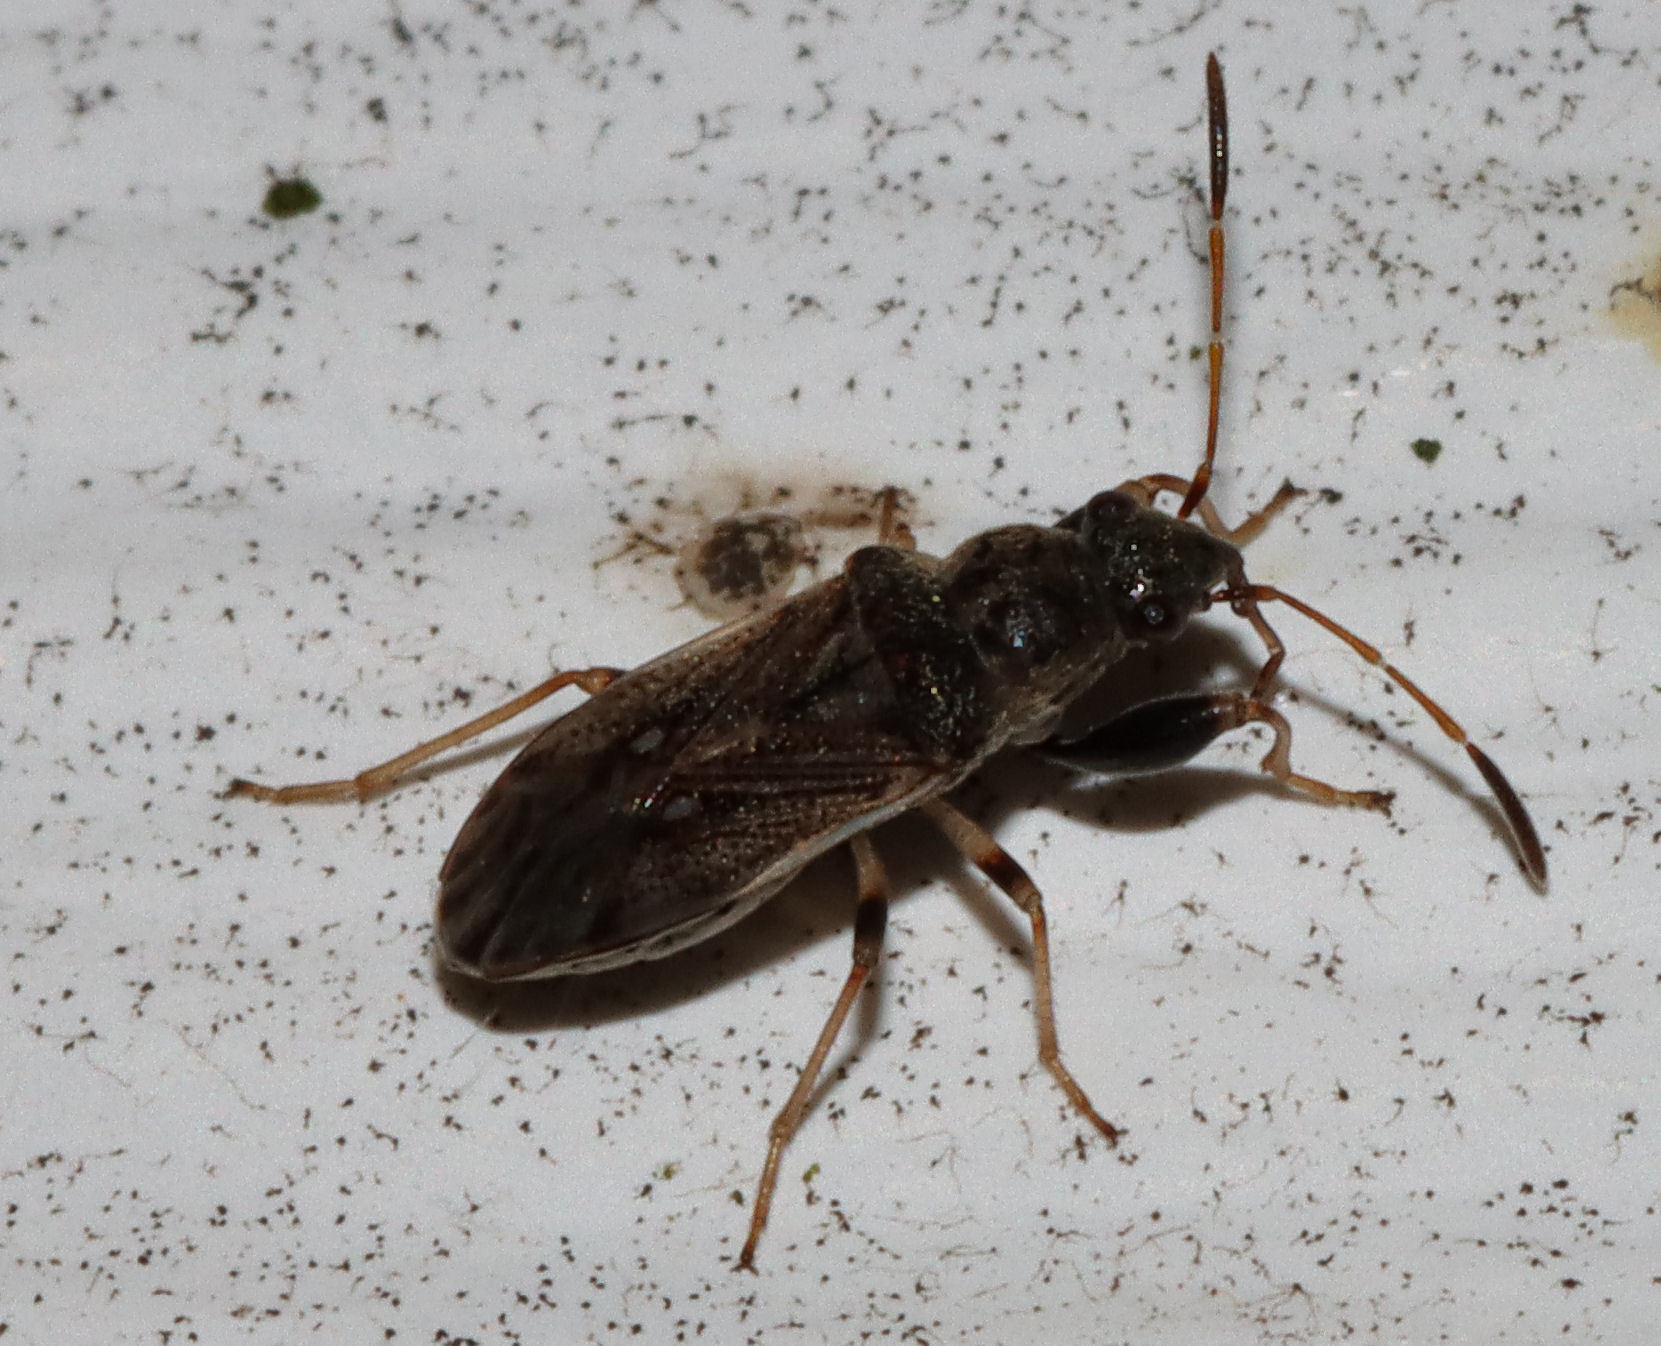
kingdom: Animalia
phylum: Arthropoda
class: Insecta
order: Hemiptera
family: Rhyparochromidae
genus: Pseudopachybrachius
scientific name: Pseudopachybrachius basalis
